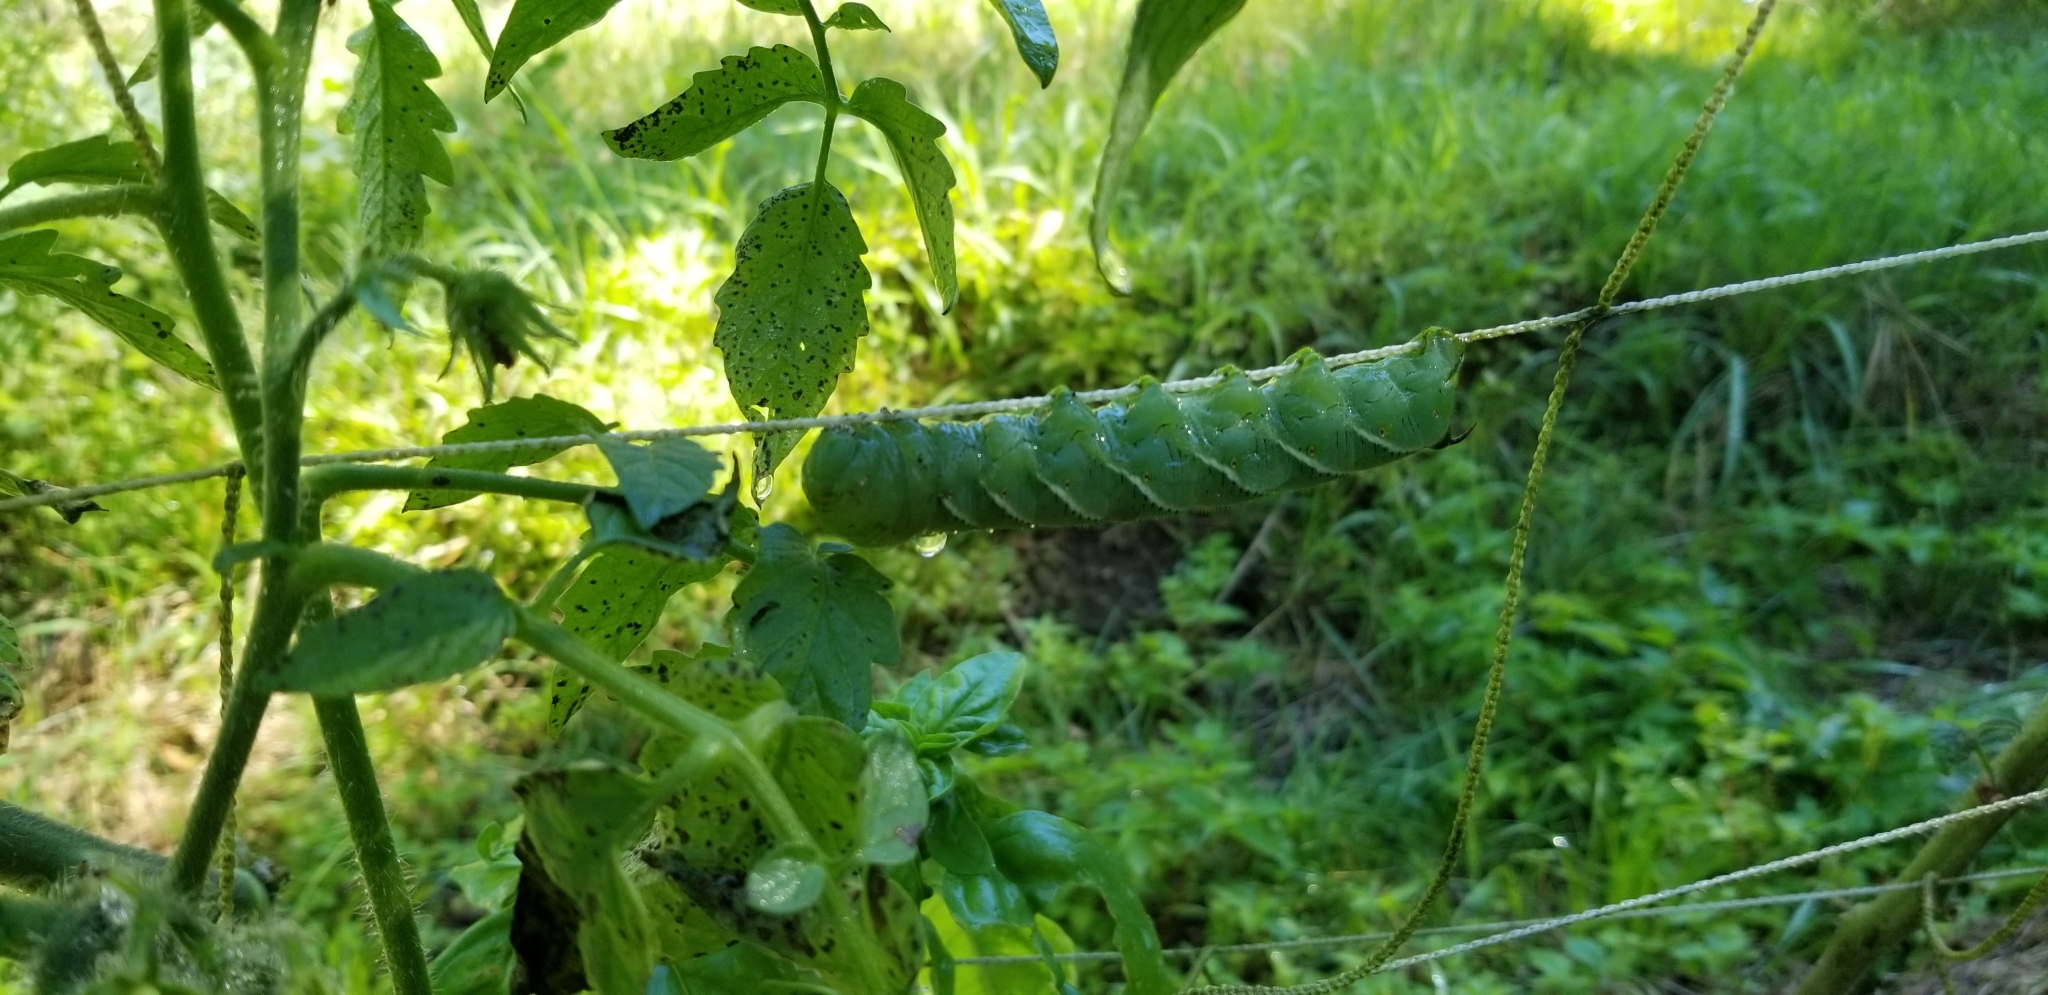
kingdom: Animalia
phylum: Arthropoda
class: Insecta
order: Lepidoptera
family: Sphingidae
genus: Manduca
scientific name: Manduca sexta
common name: Carolina sphinx
